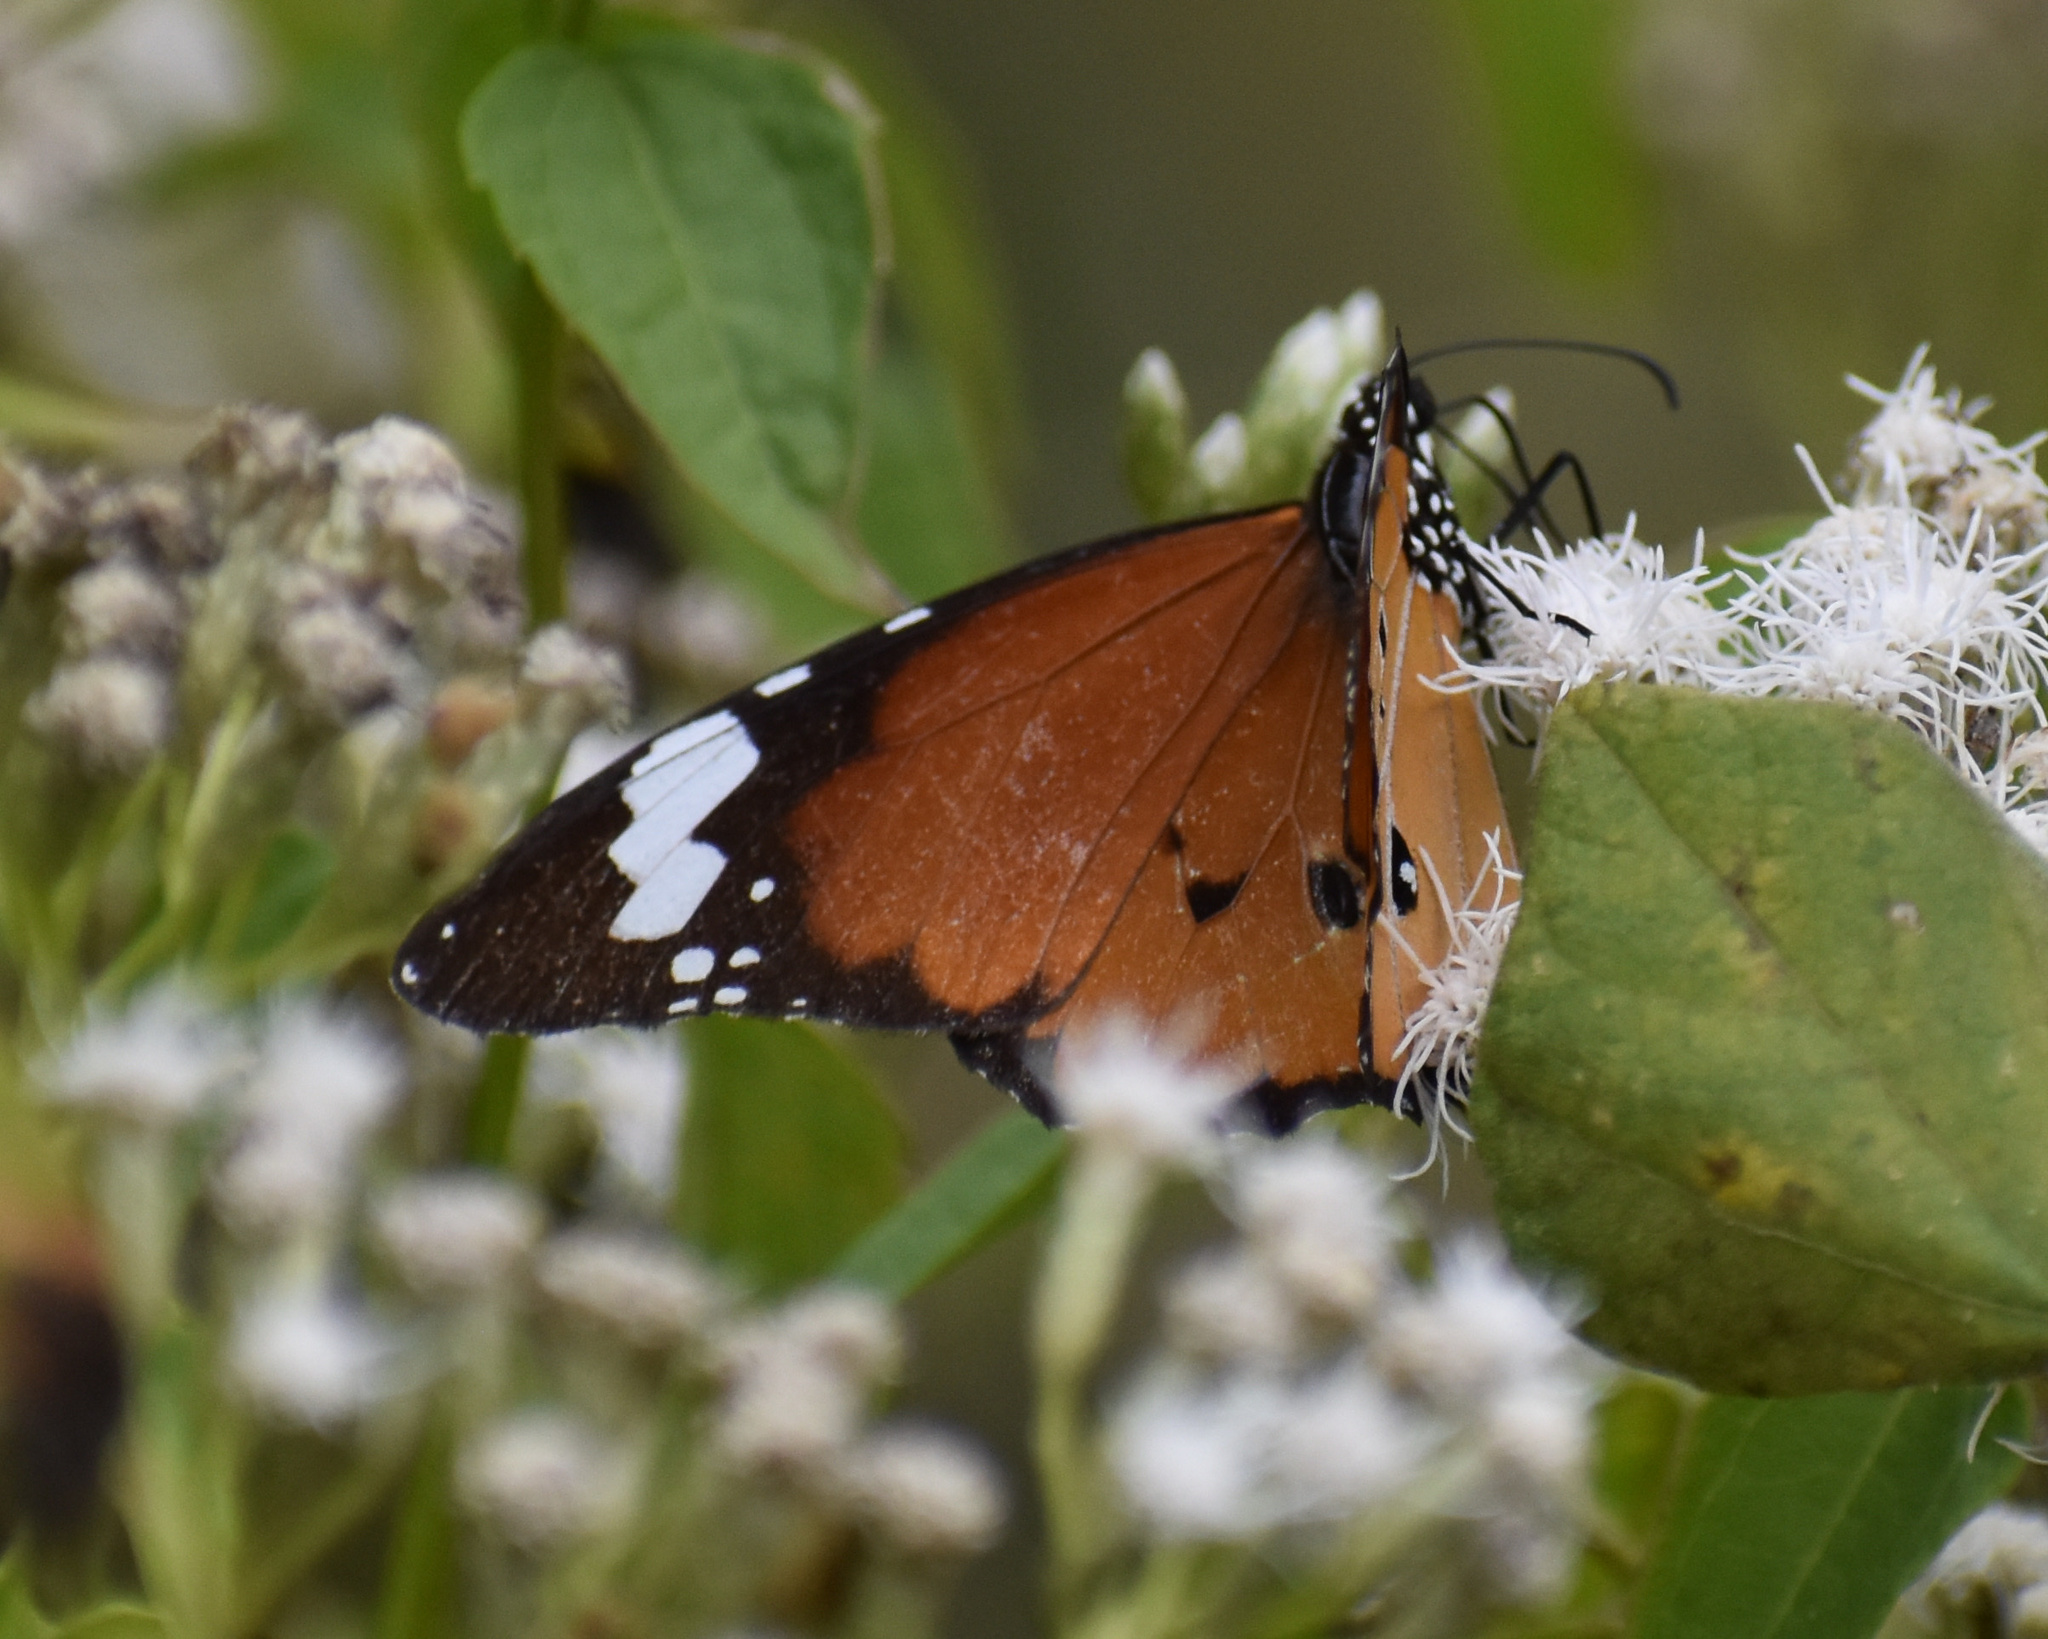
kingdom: Animalia
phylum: Arthropoda
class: Insecta
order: Lepidoptera
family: Nymphalidae
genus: Danaus
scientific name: Danaus chrysippus
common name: Plain tiger
